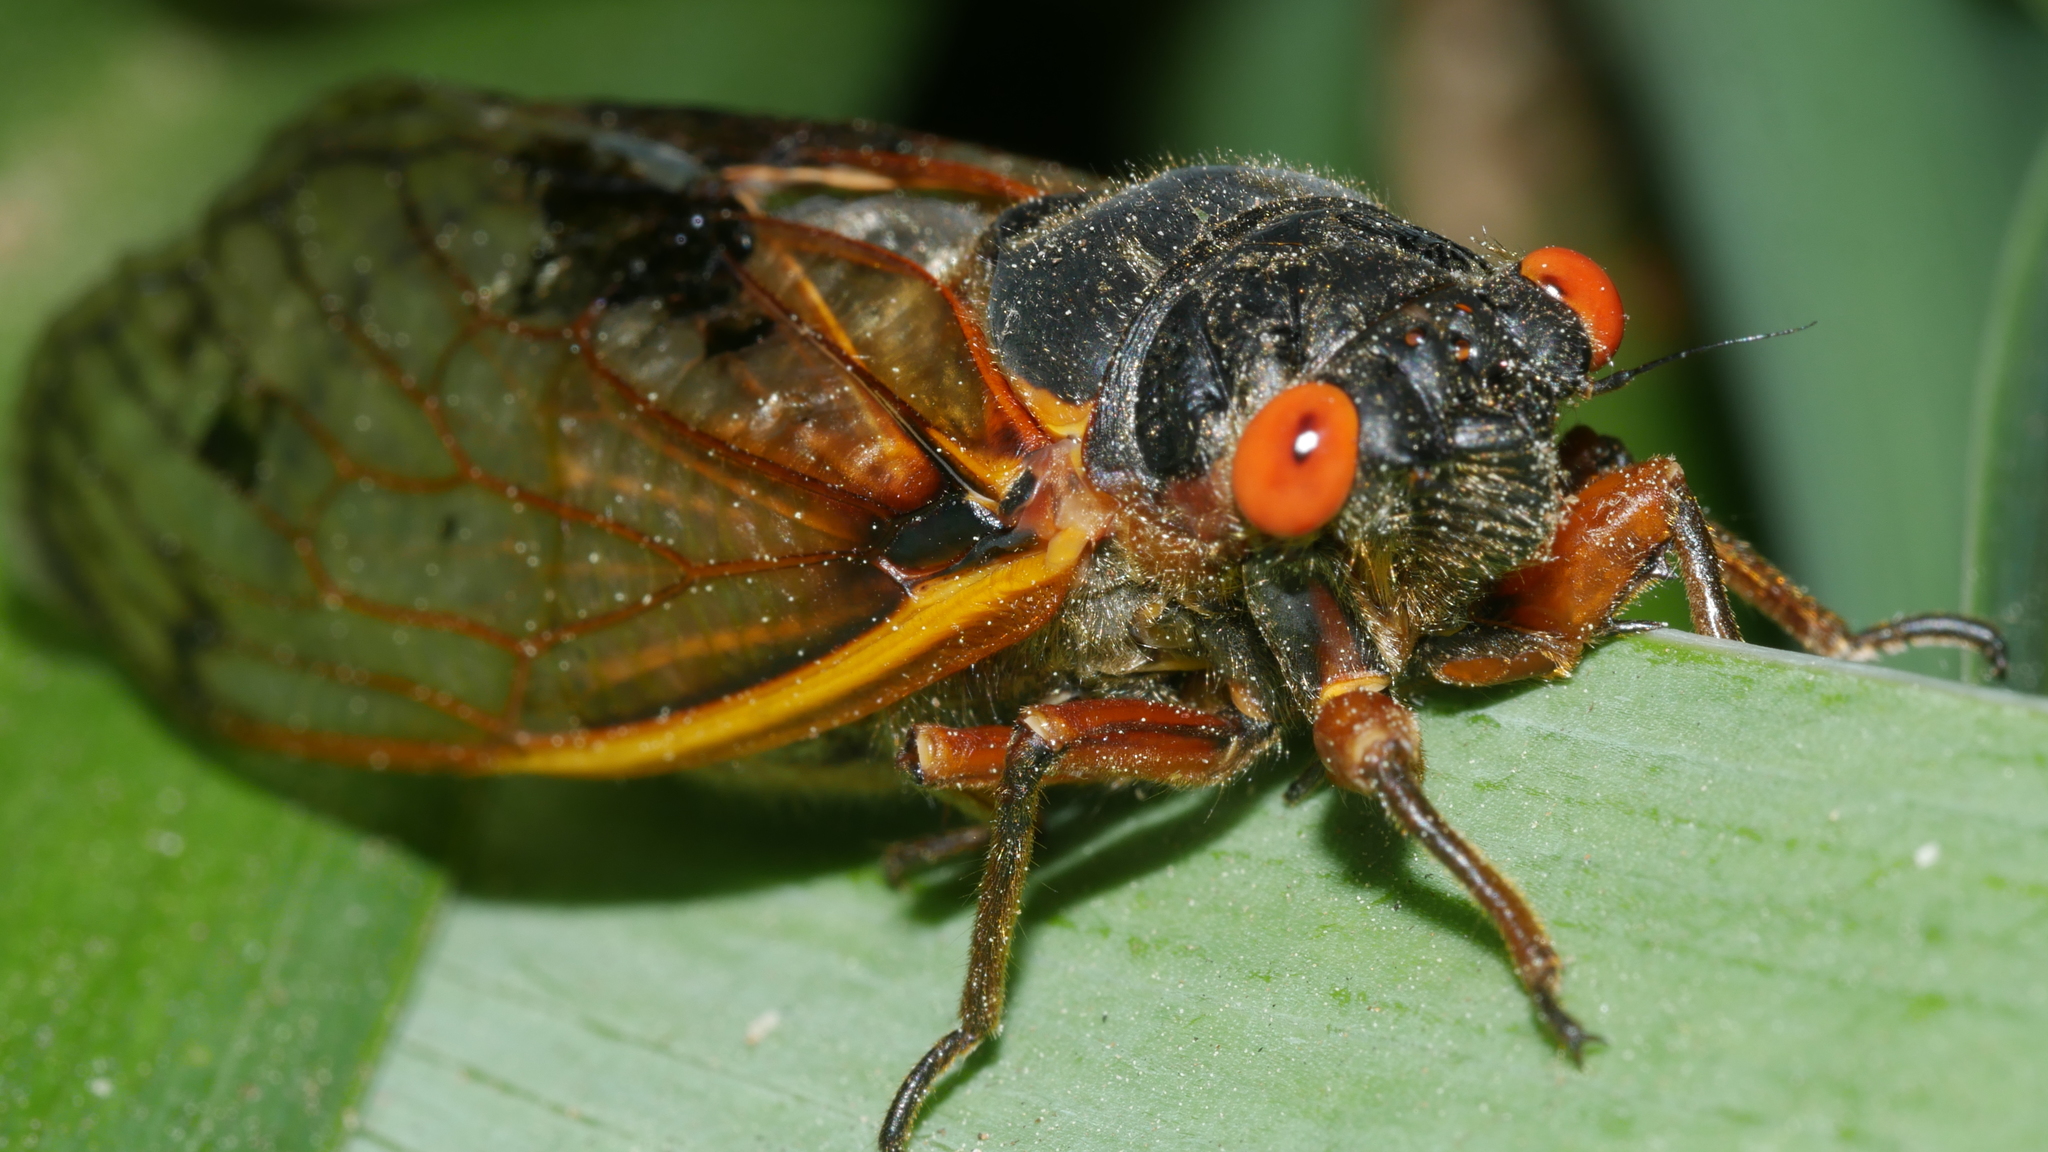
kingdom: Animalia
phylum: Arthropoda
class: Insecta
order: Hemiptera
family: Cicadidae
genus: Magicicada
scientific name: Magicicada septendecim
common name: Periodical cicada
